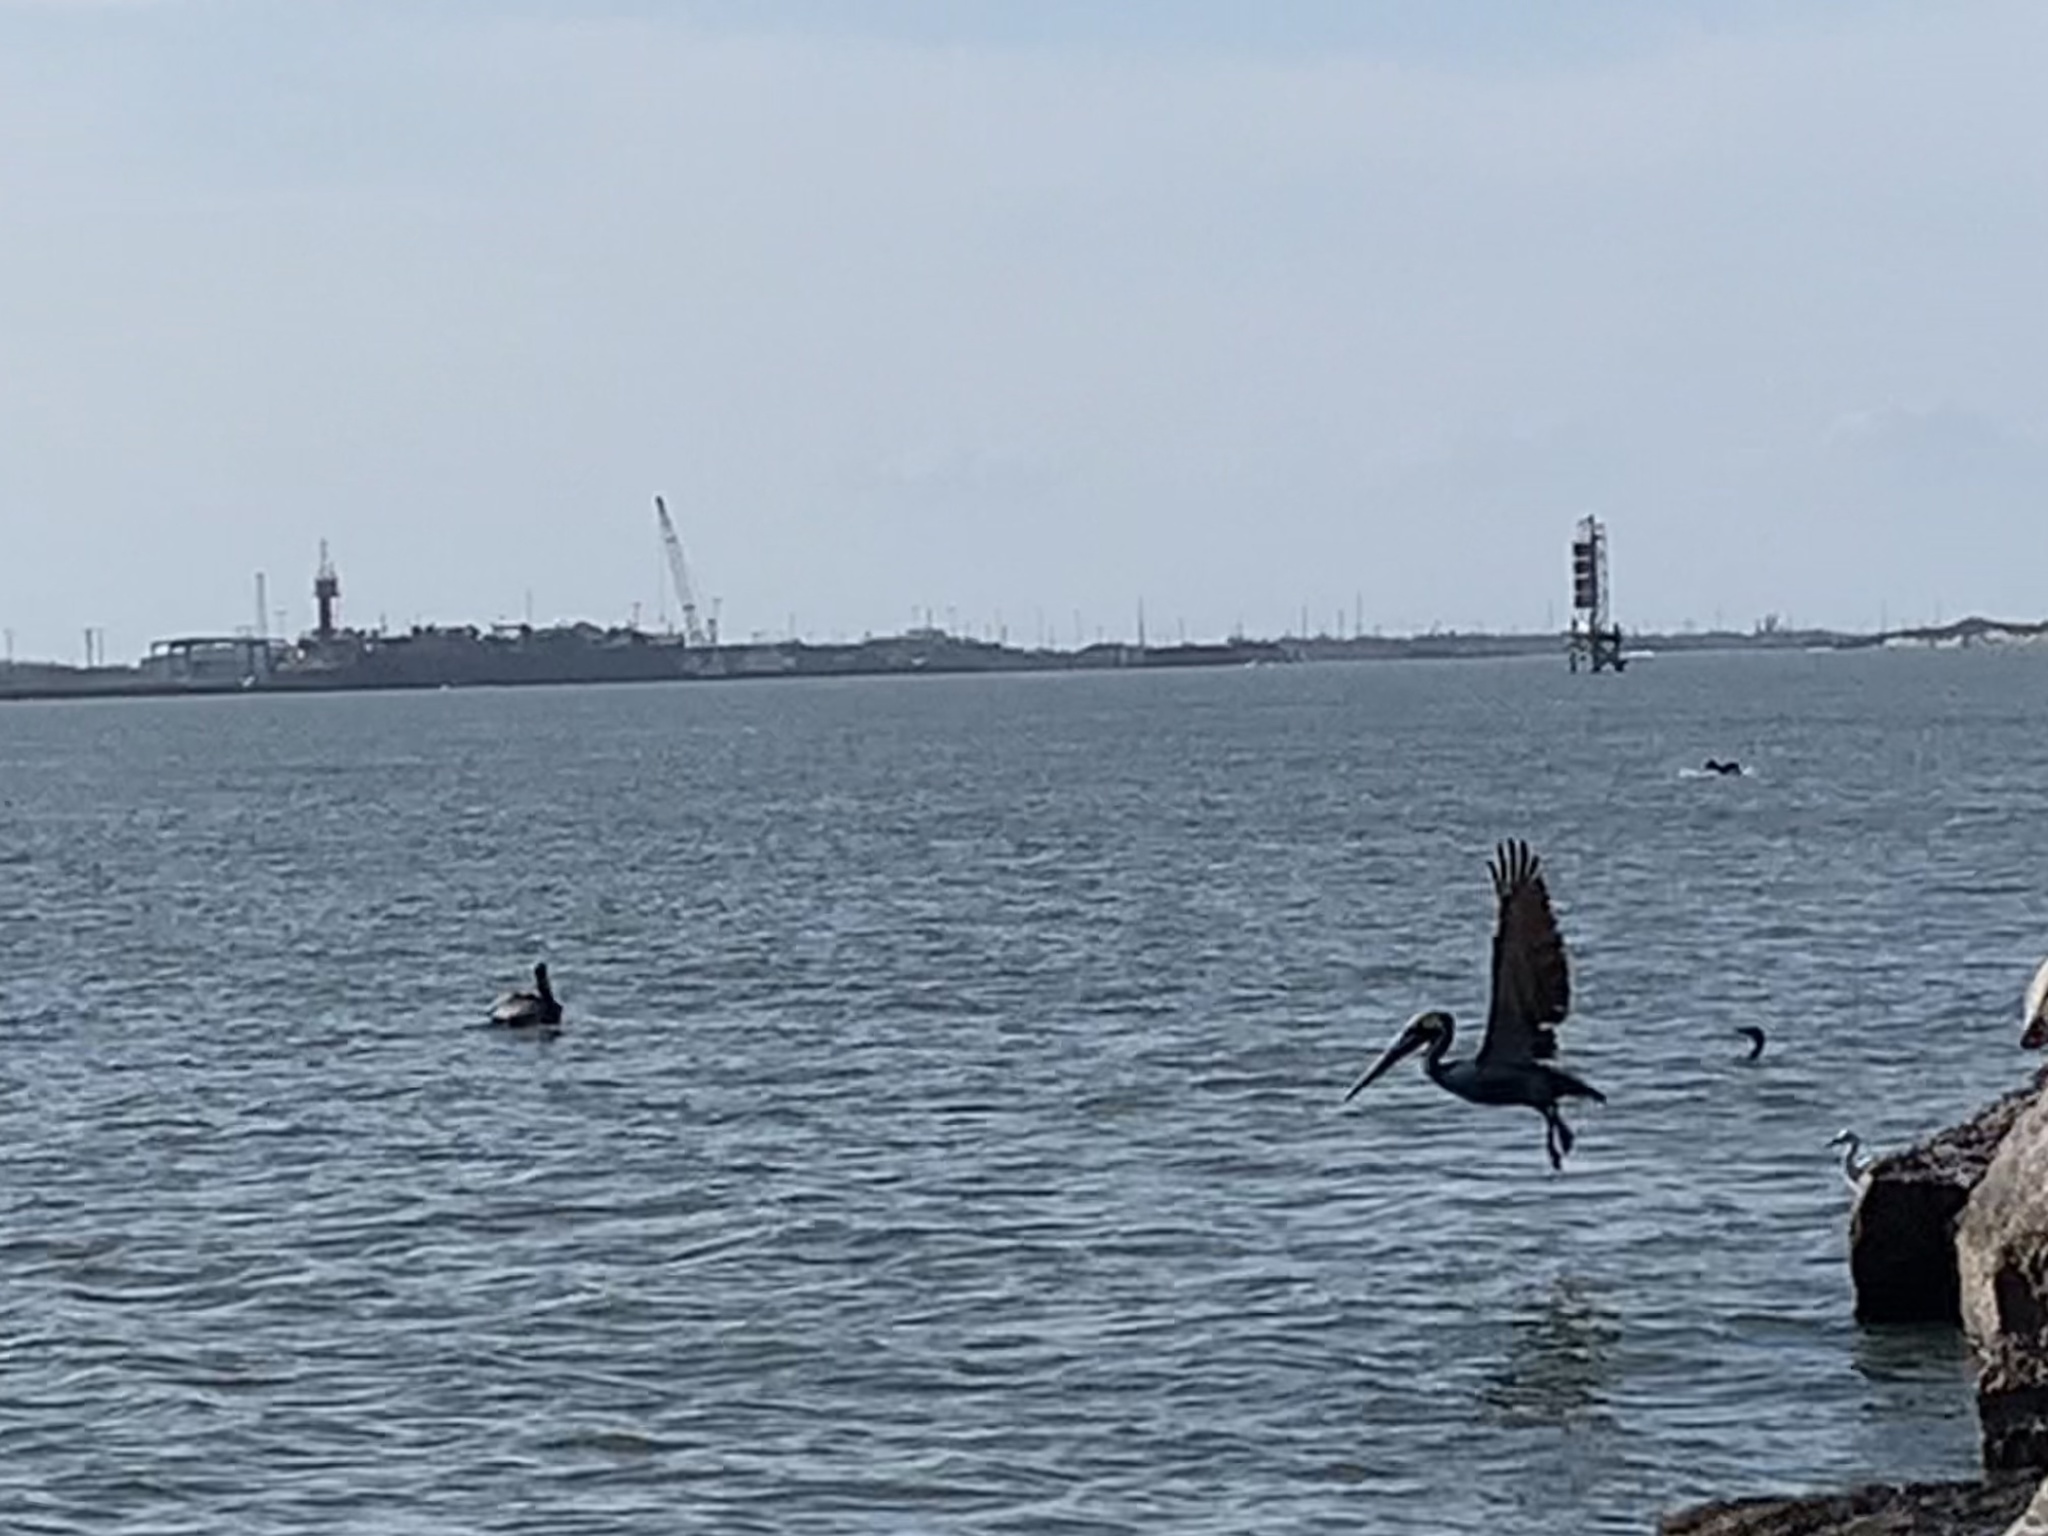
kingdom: Animalia
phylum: Chordata
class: Aves
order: Pelecaniformes
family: Pelecanidae
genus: Pelecanus
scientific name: Pelecanus occidentalis
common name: Brown pelican
